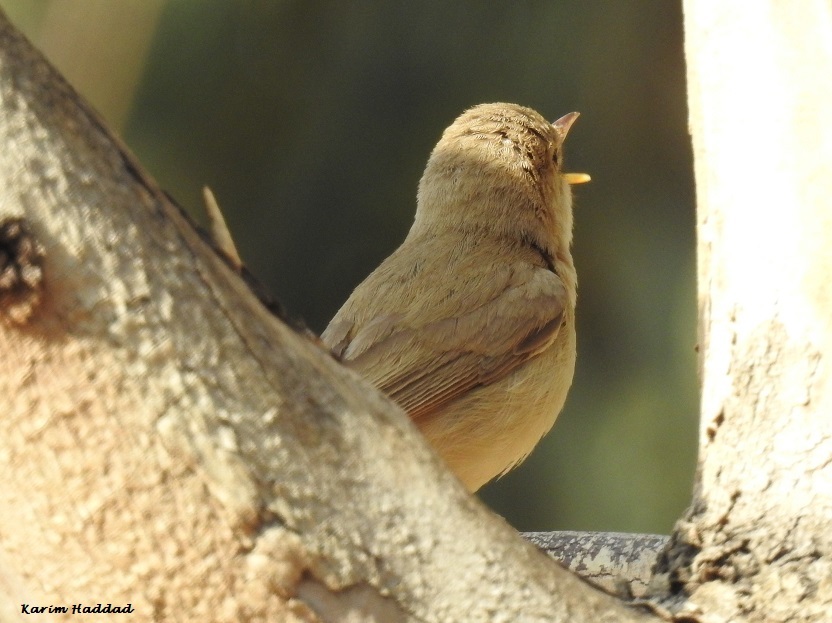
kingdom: Animalia
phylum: Chordata
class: Aves
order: Passeriformes
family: Acrocephalidae
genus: Iduna
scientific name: Iduna pallida
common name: Eastern olivaceous warbler
